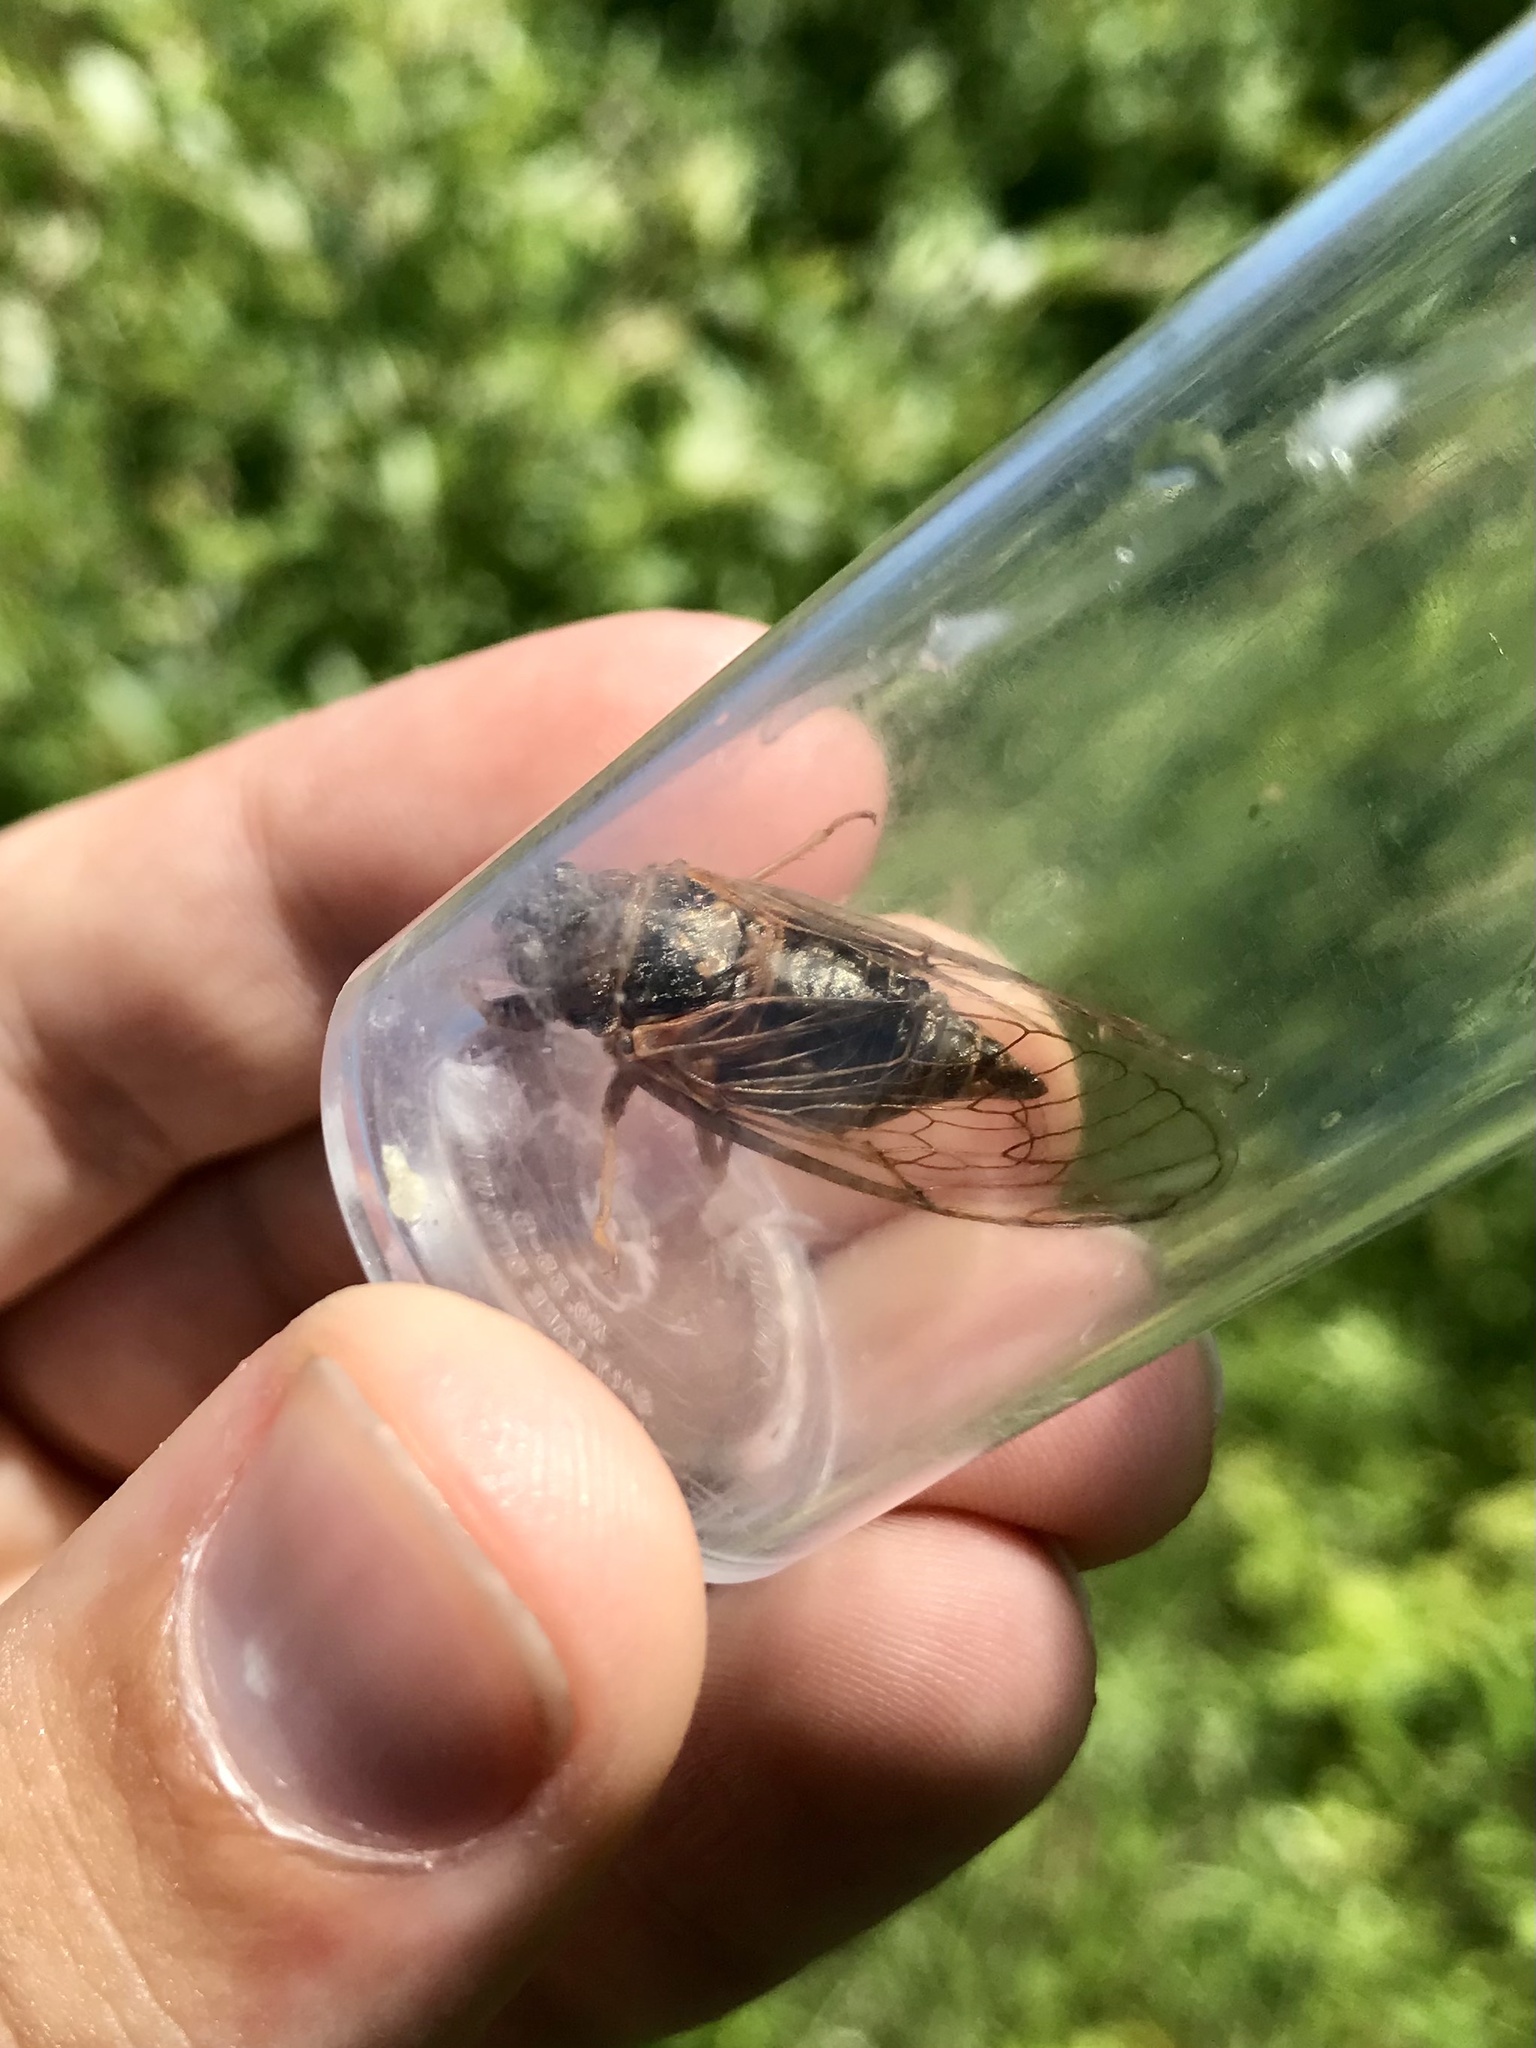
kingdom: Animalia
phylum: Arthropoda
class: Insecta
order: Hemiptera
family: Cicadidae
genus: Okanagana
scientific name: Okanagana balli
